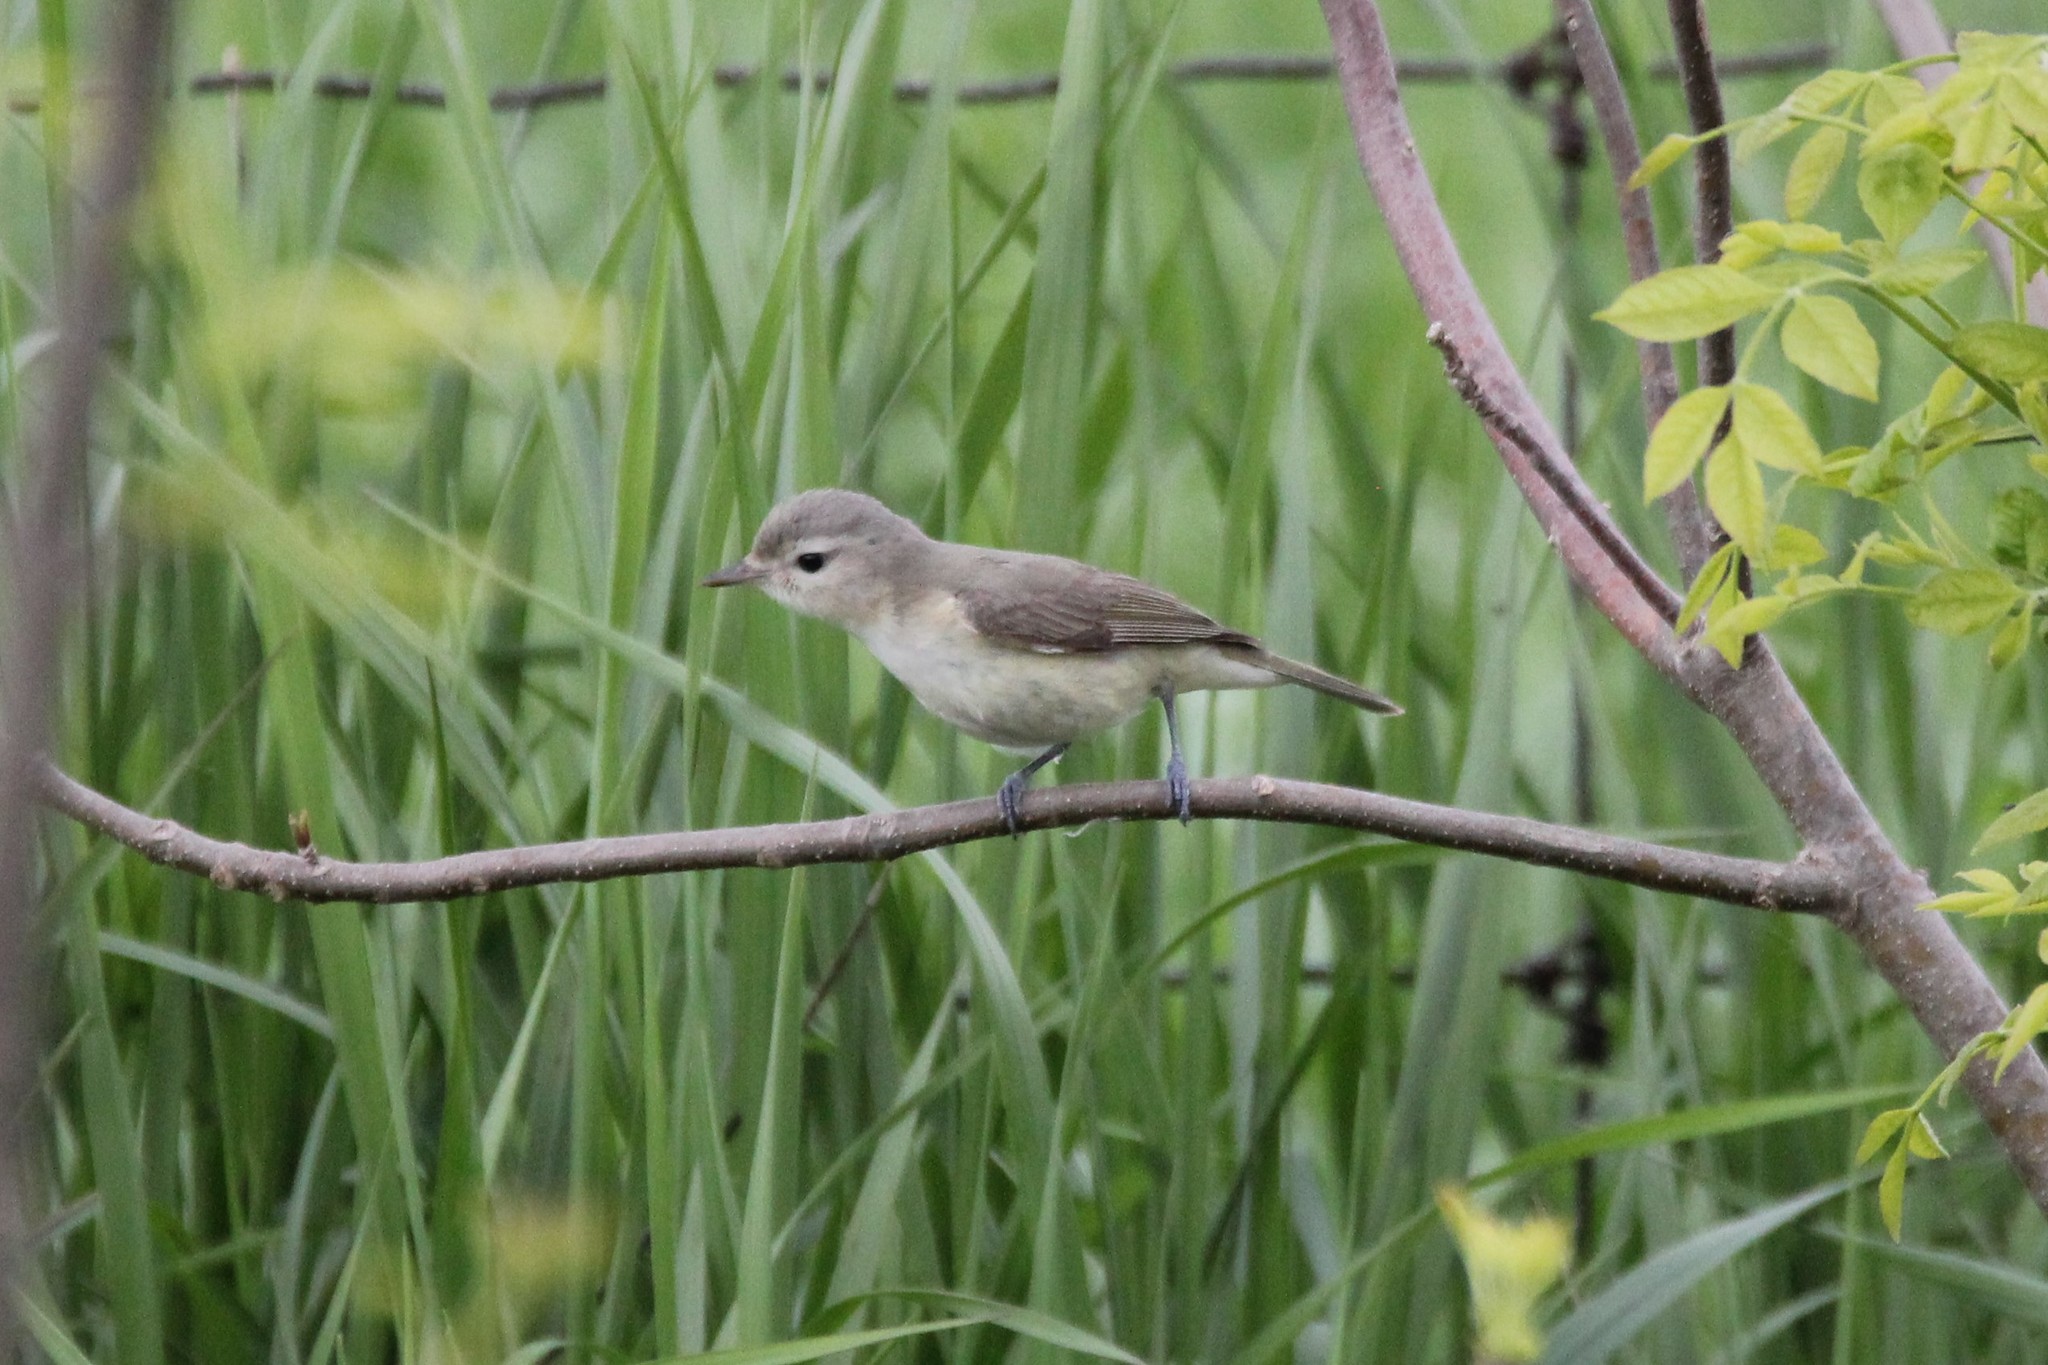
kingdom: Animalia
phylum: Chordata
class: Aves
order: Passeriformes
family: Vireonidae
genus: Vireo
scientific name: Vireo gilvus
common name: Warbling vireo
